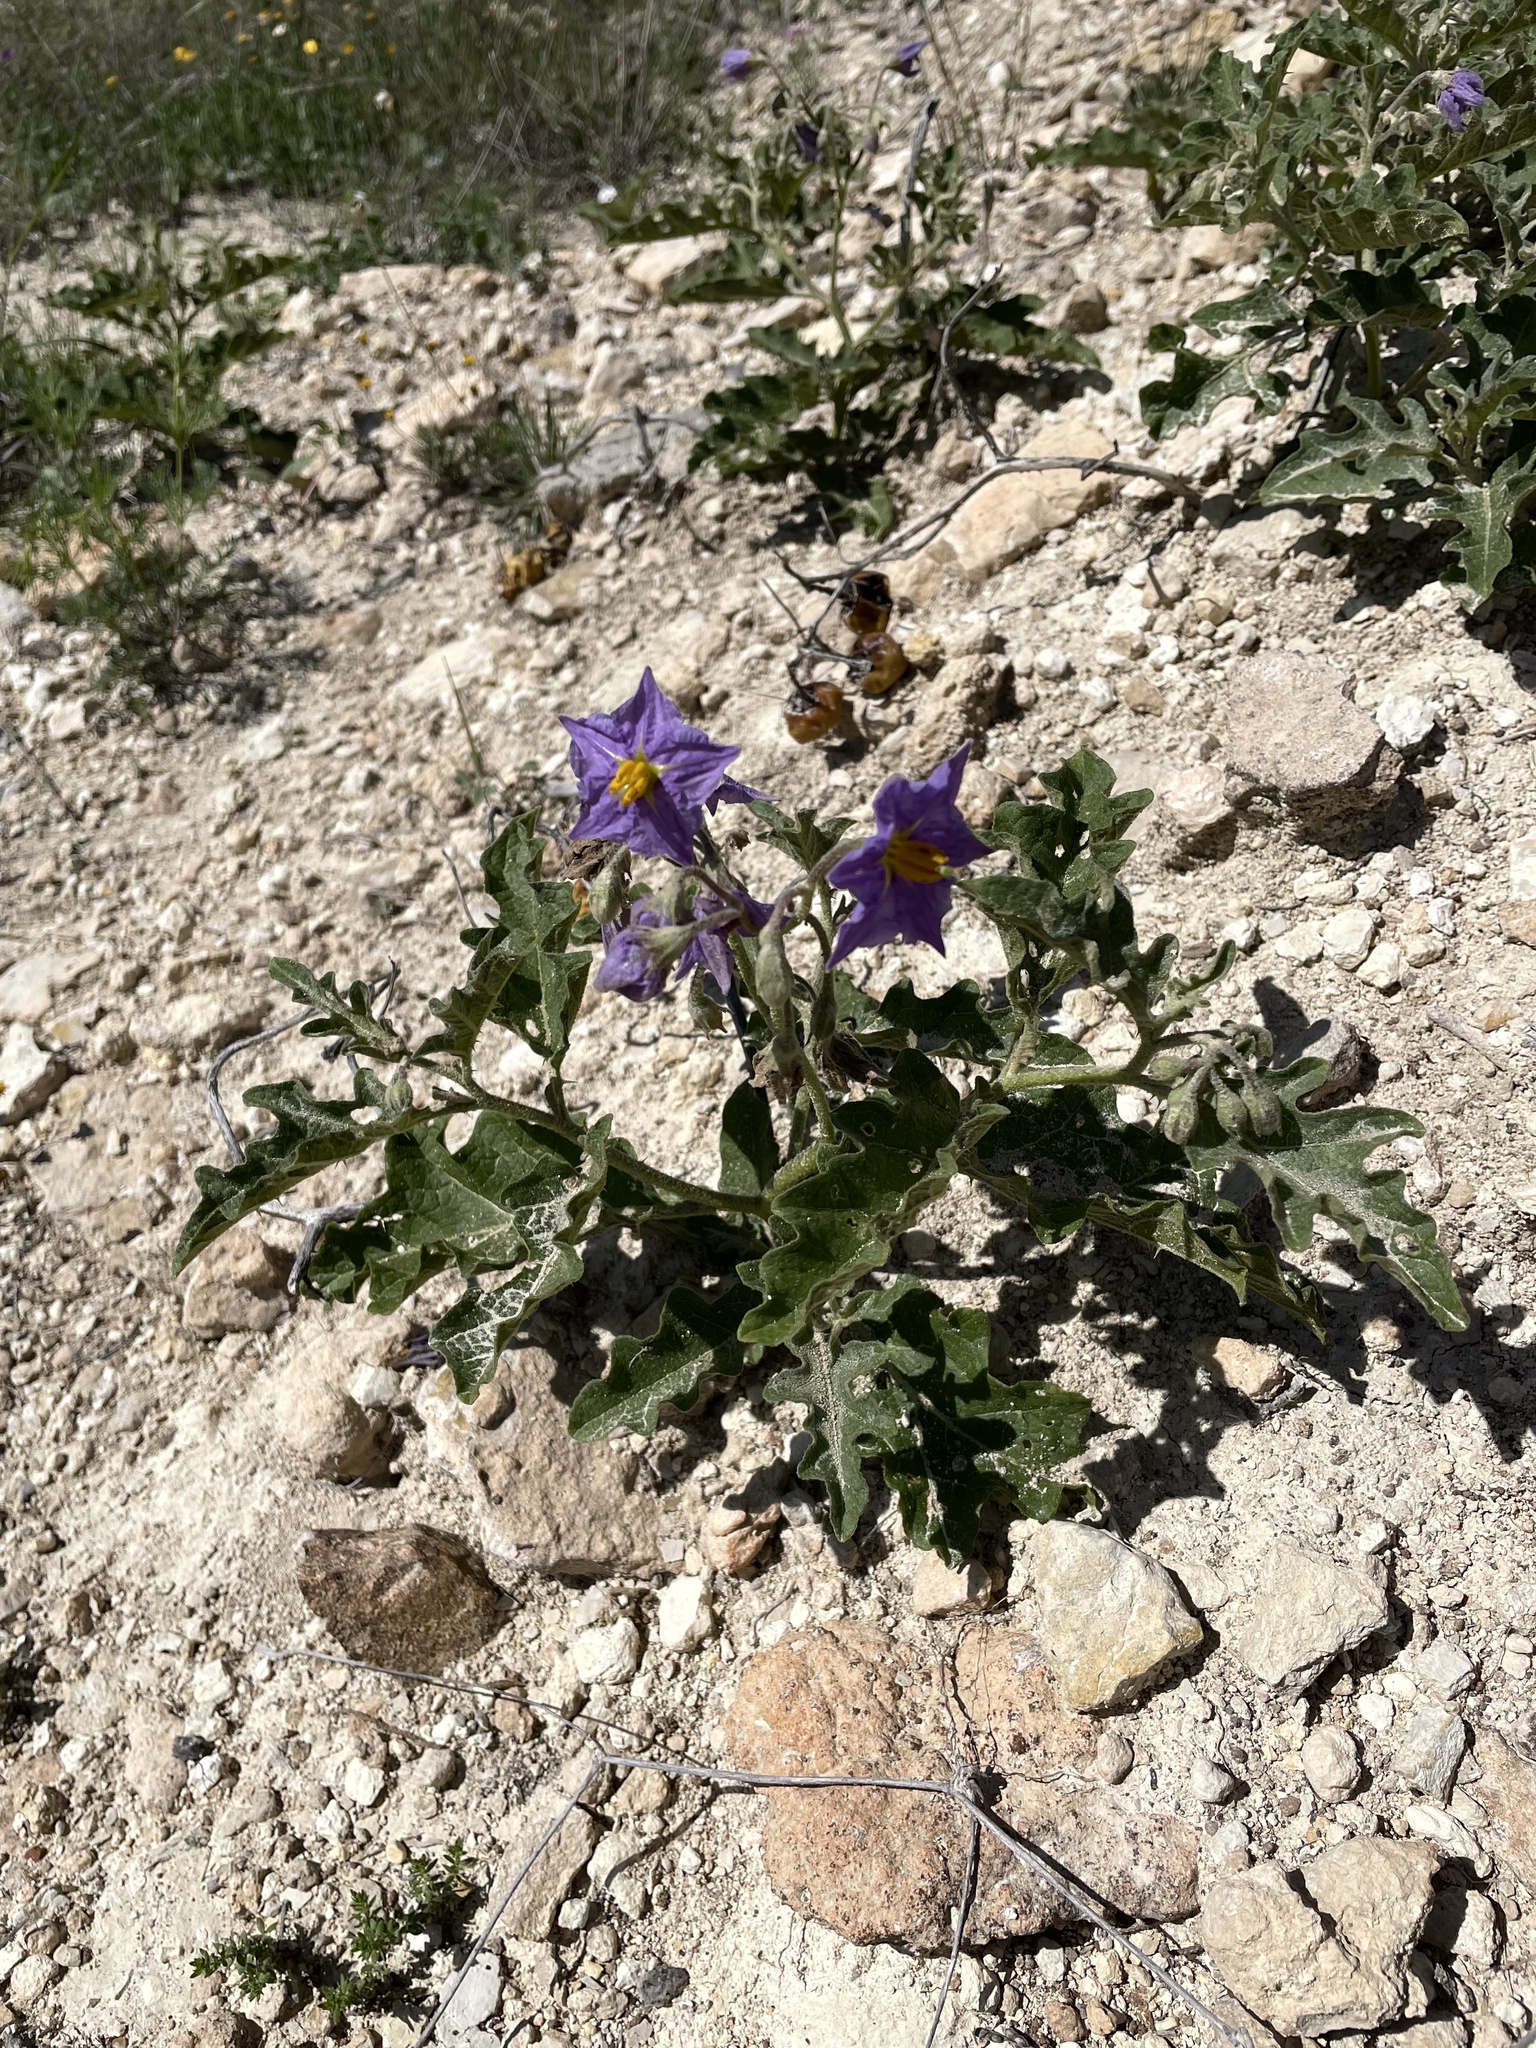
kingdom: Plantae
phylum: Tracheophyta
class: Magnoliopsida
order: Solanales
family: Solanaceae
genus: Solanum
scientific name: Solanum dimidiatum
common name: Carolina horse-nettle
